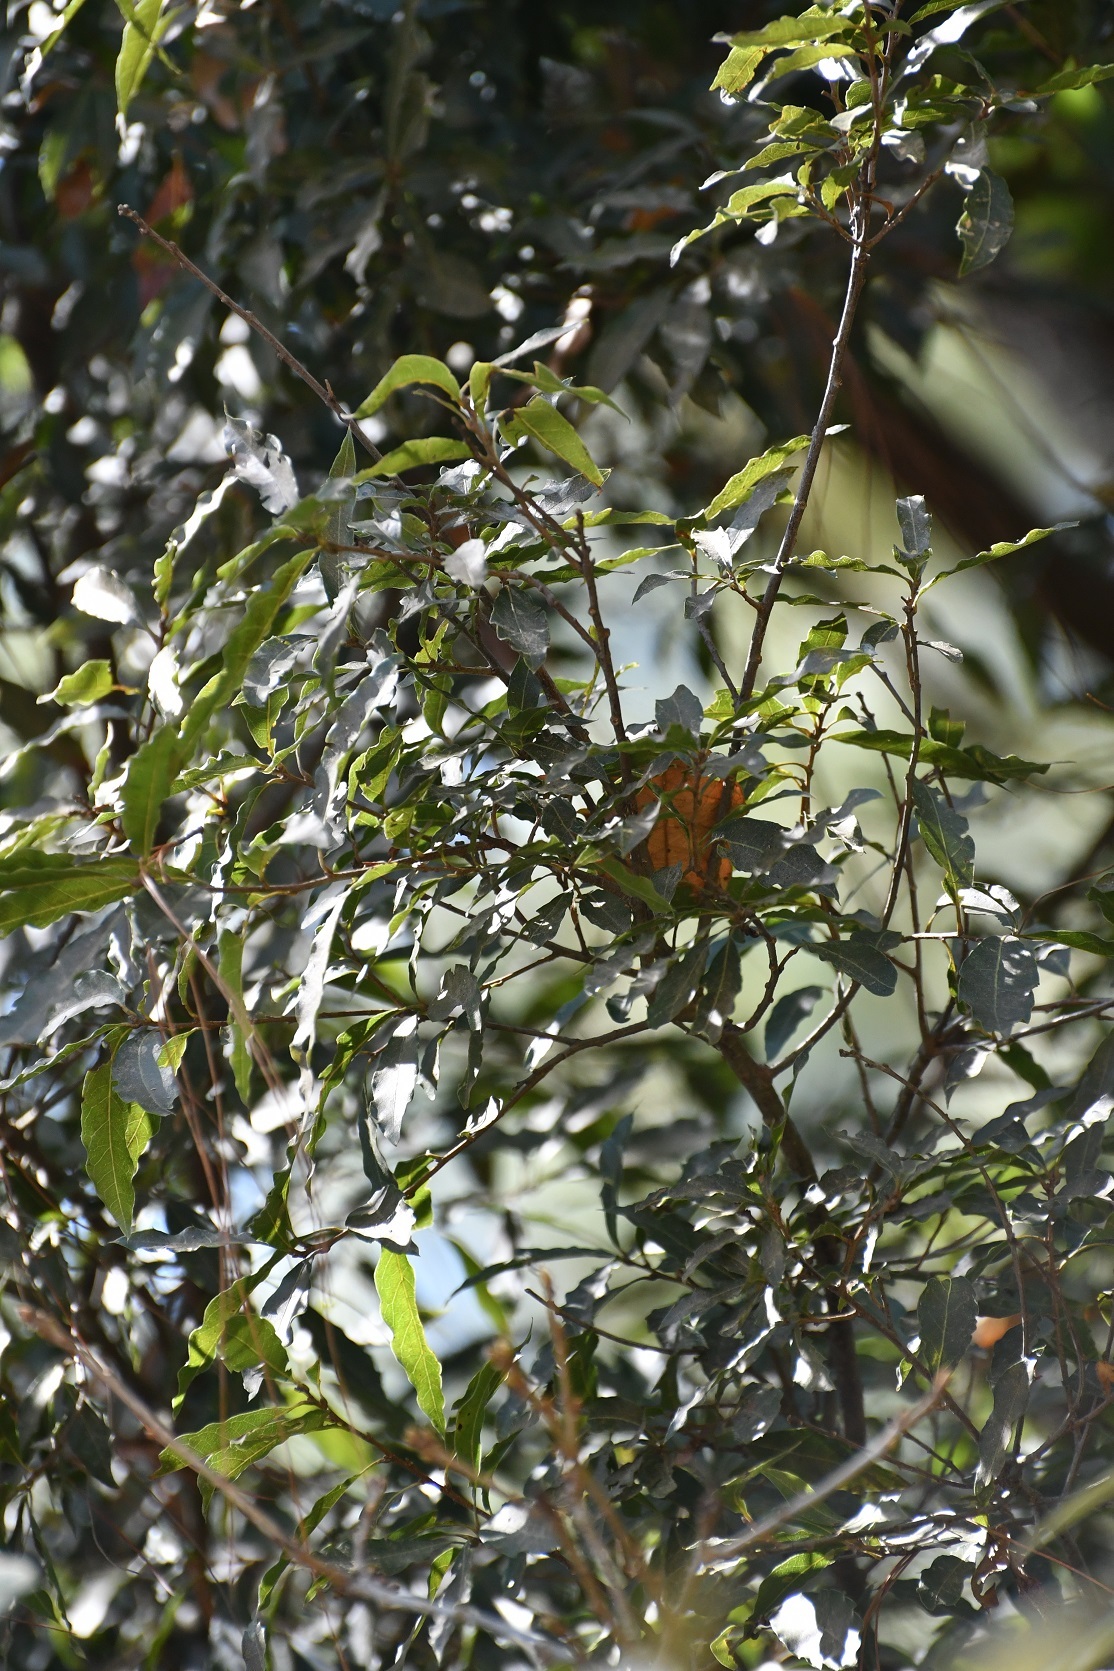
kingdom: Plantae
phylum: Tracheophyta
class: Magnoliopsida
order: Fagales
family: Fagaceae
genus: Quercus
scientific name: Quercus laurina
